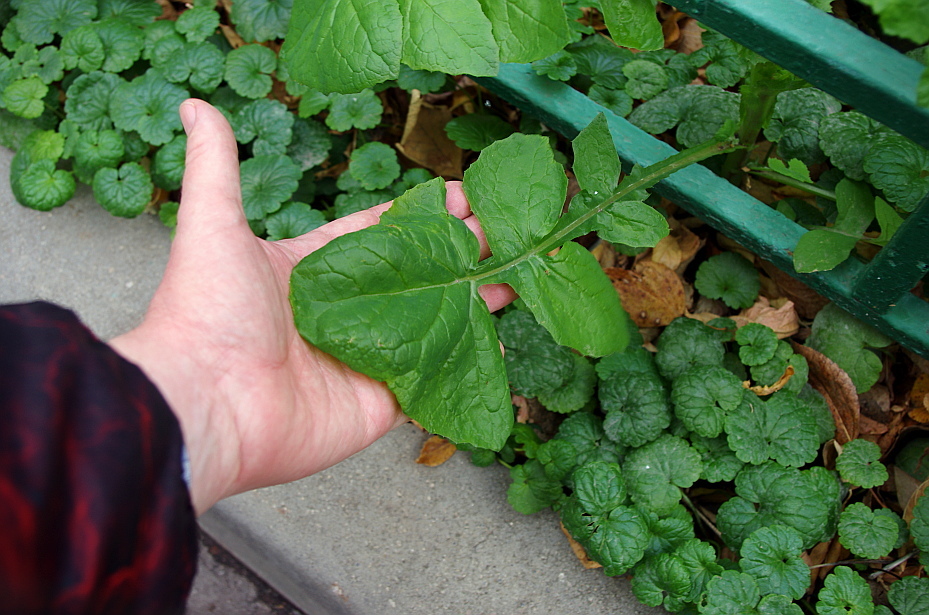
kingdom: Plantae
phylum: Tracheophyta
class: Magnoliopsida
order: Asterales
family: Asteraceae
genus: Sonchus
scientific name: Sonchus oleraceus
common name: Common sowthistle
